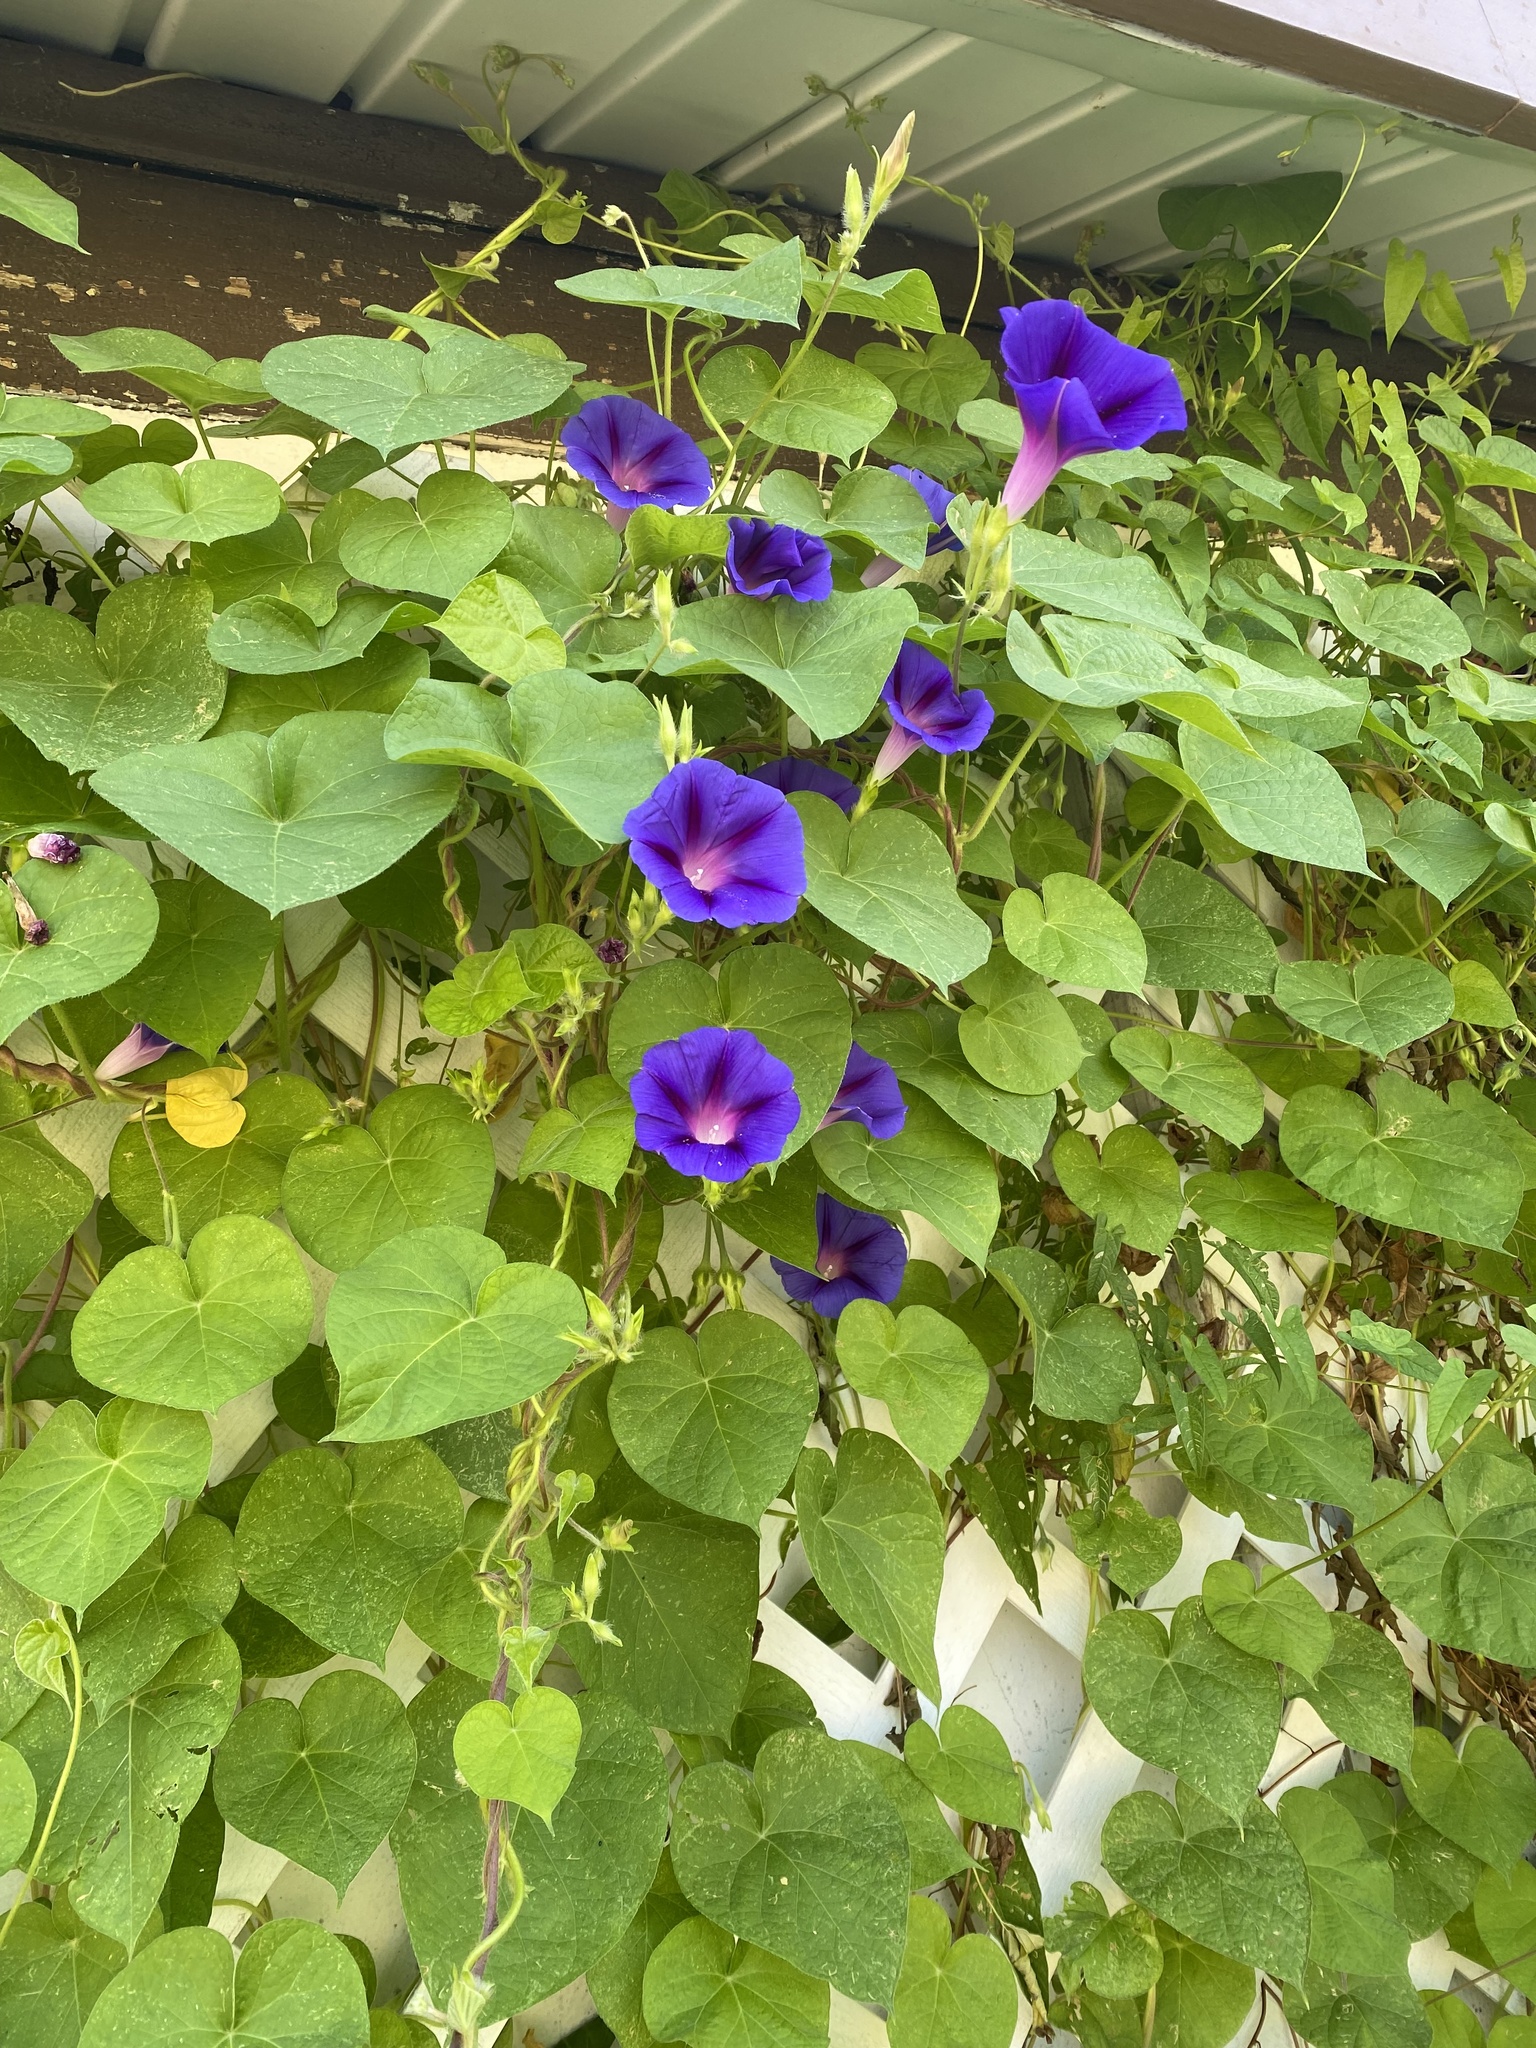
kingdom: Plantae
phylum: Tracheophyta
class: Magnoliopsida
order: Solanales
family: Convolvulaceae
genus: Ipomoea
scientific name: Ipomoea purpurea
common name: Common morning-glory
